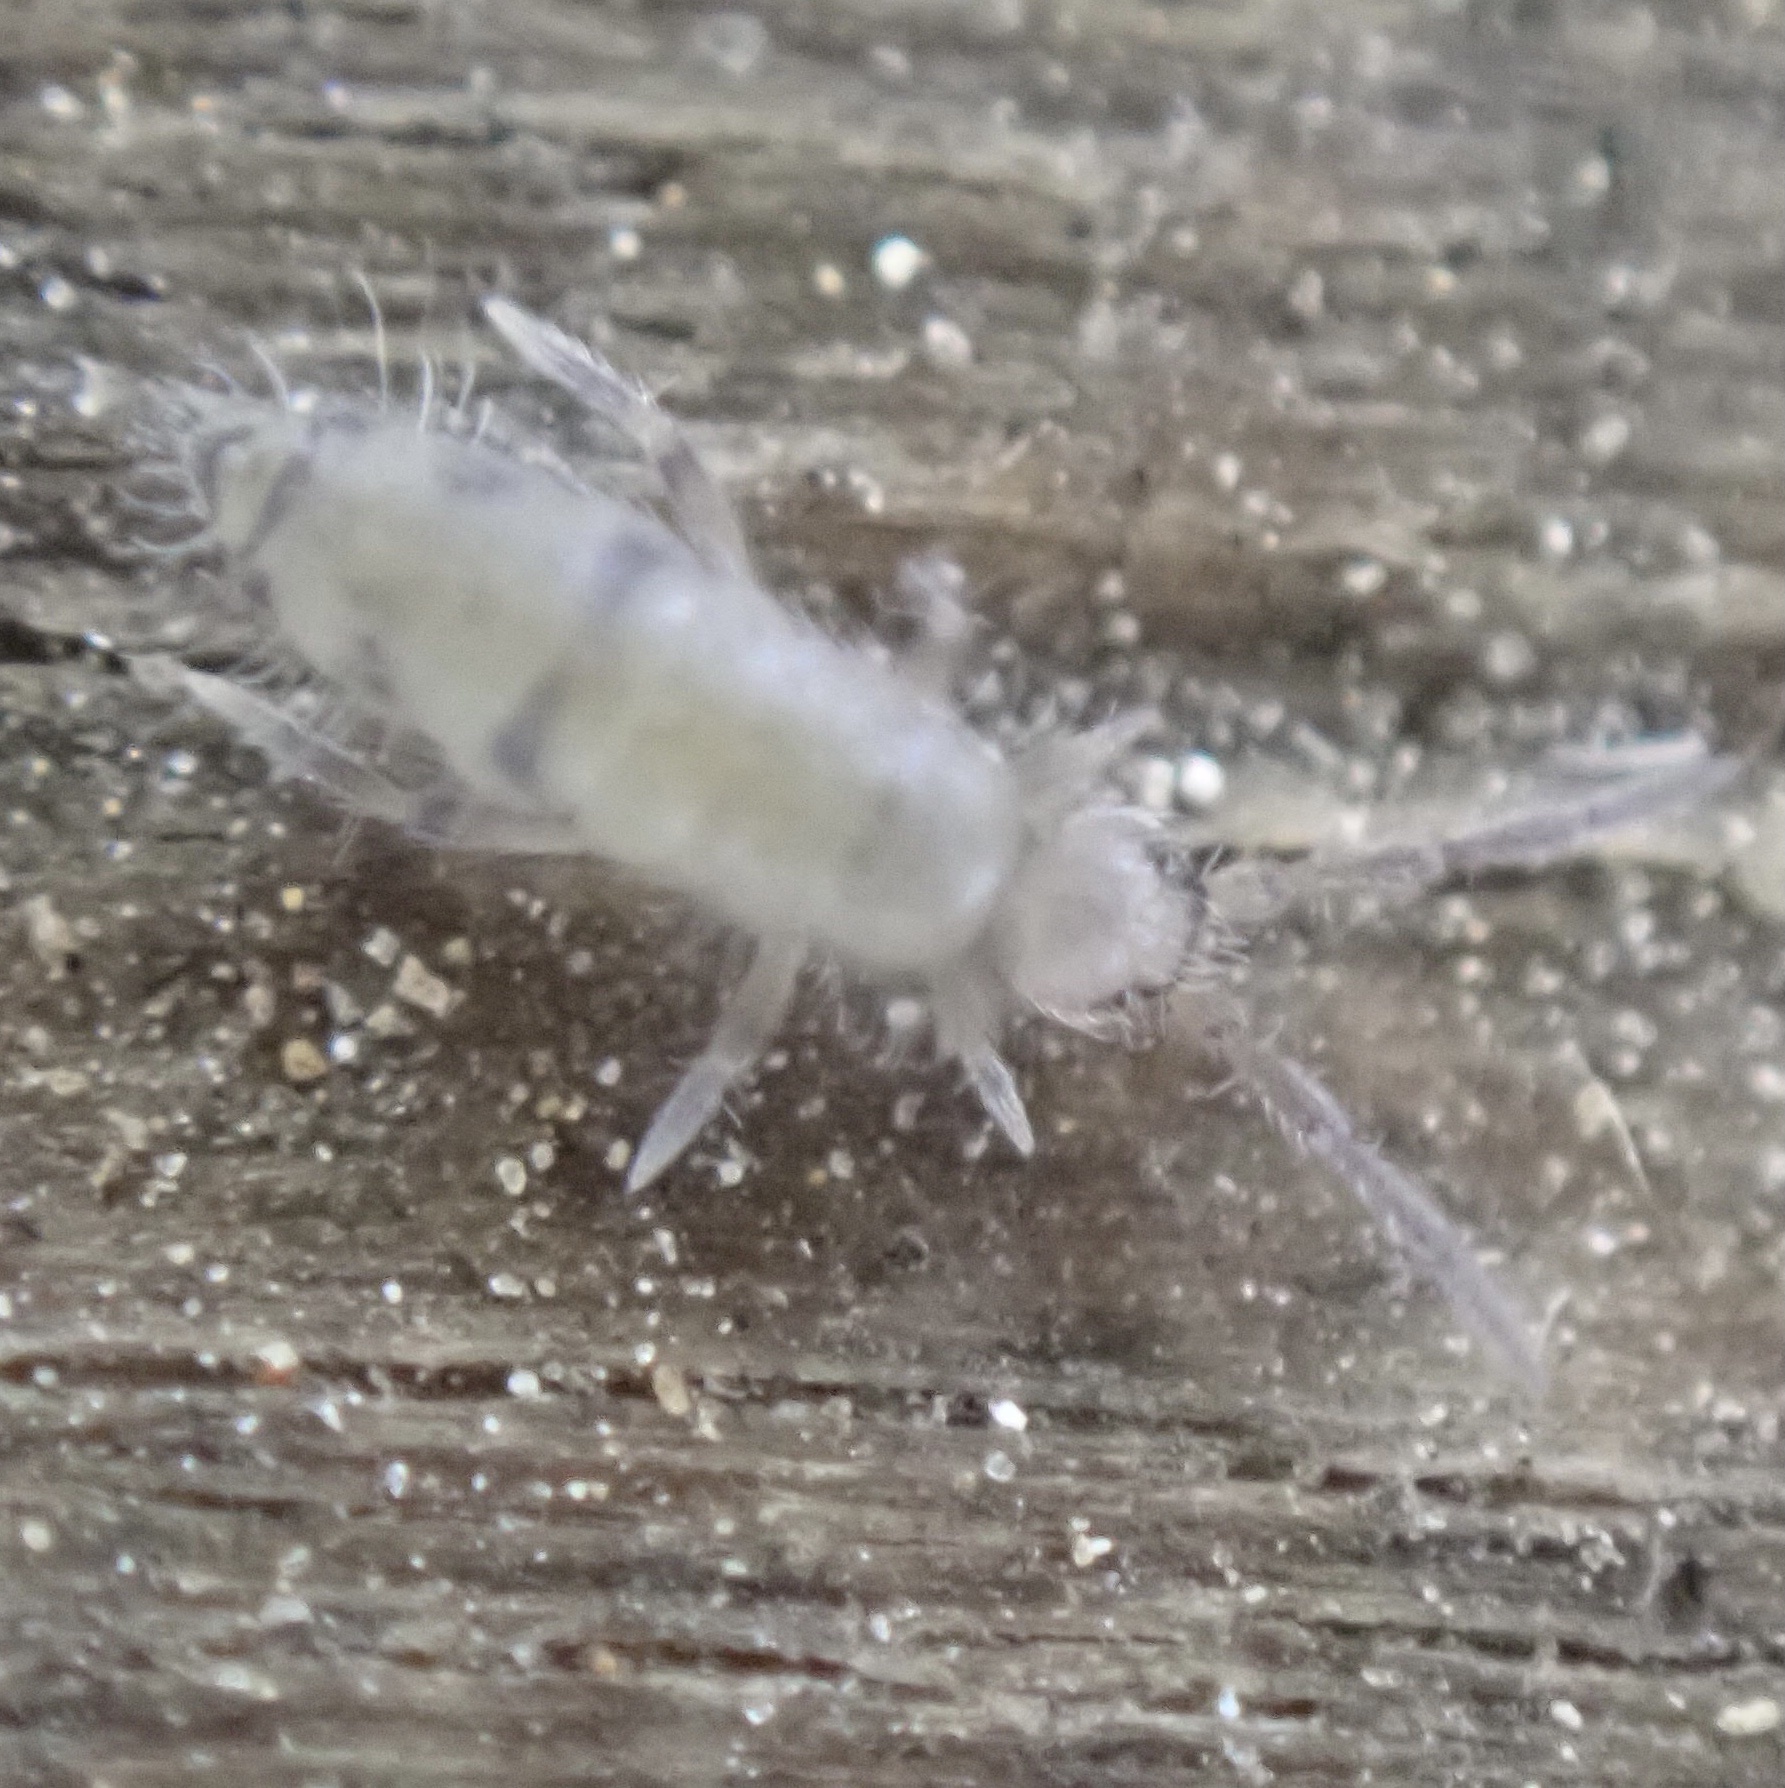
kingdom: Animalia
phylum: Arthropoda
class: Collembola
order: Entomobryomorpha
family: Entomobryidae
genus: Willowsia
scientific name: Willowsia nigromaculata
